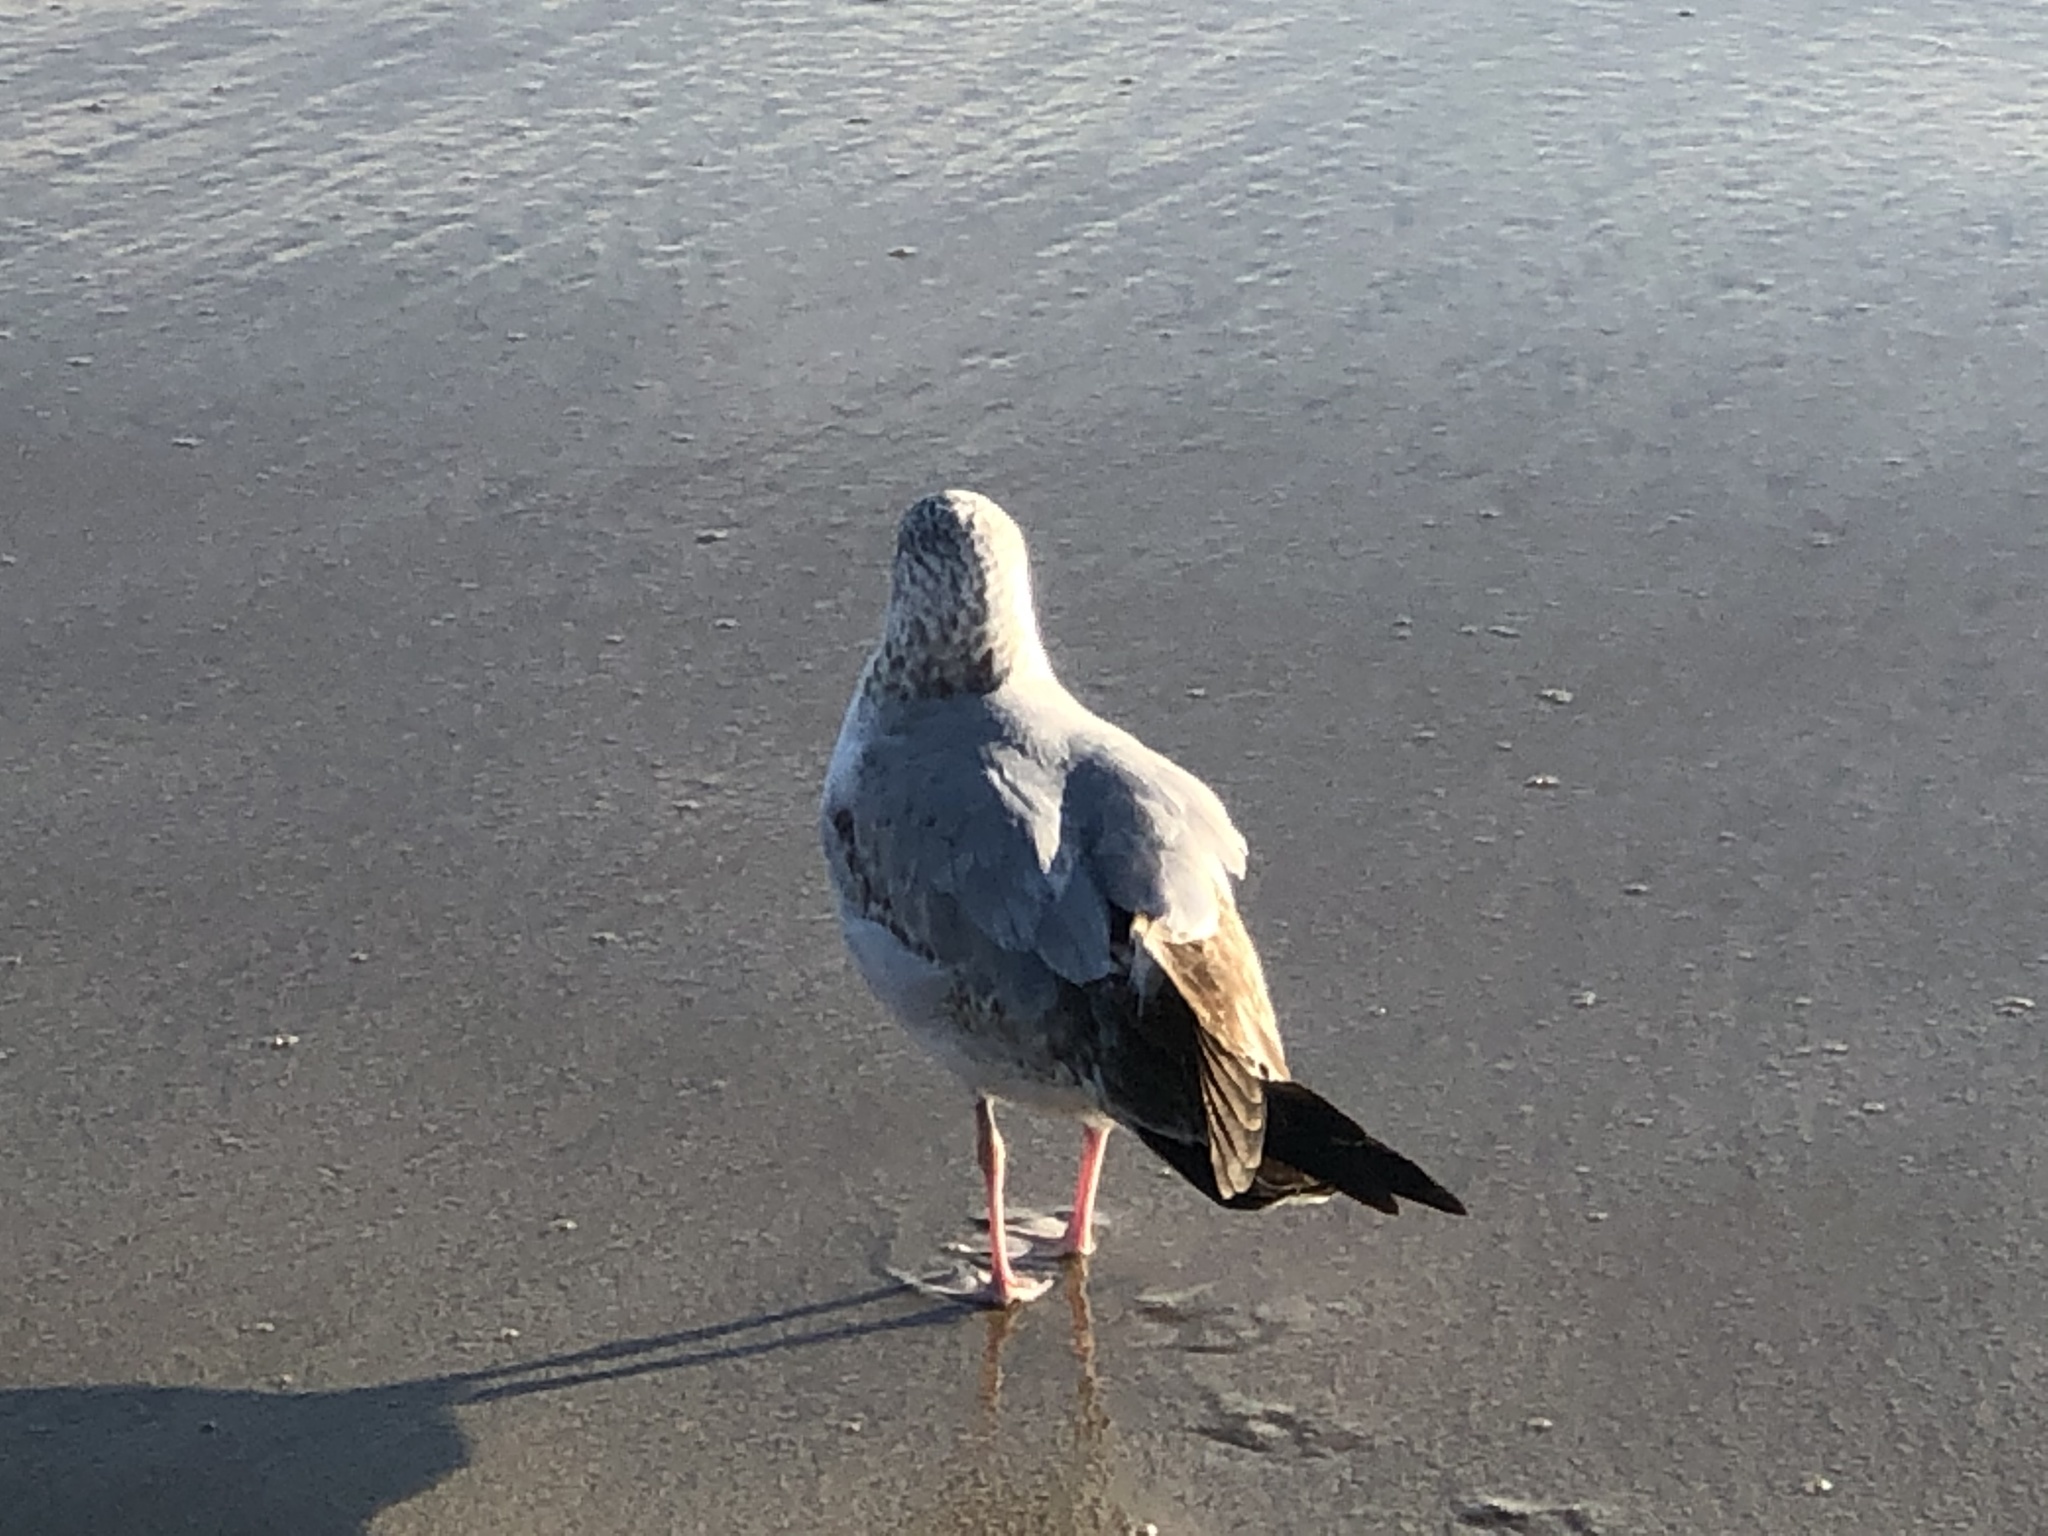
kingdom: Animalia
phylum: Chordata
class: Aves
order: Charadriiformes
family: Laridae
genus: Larus
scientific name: Larus delawarensis
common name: Ring-billed gull
